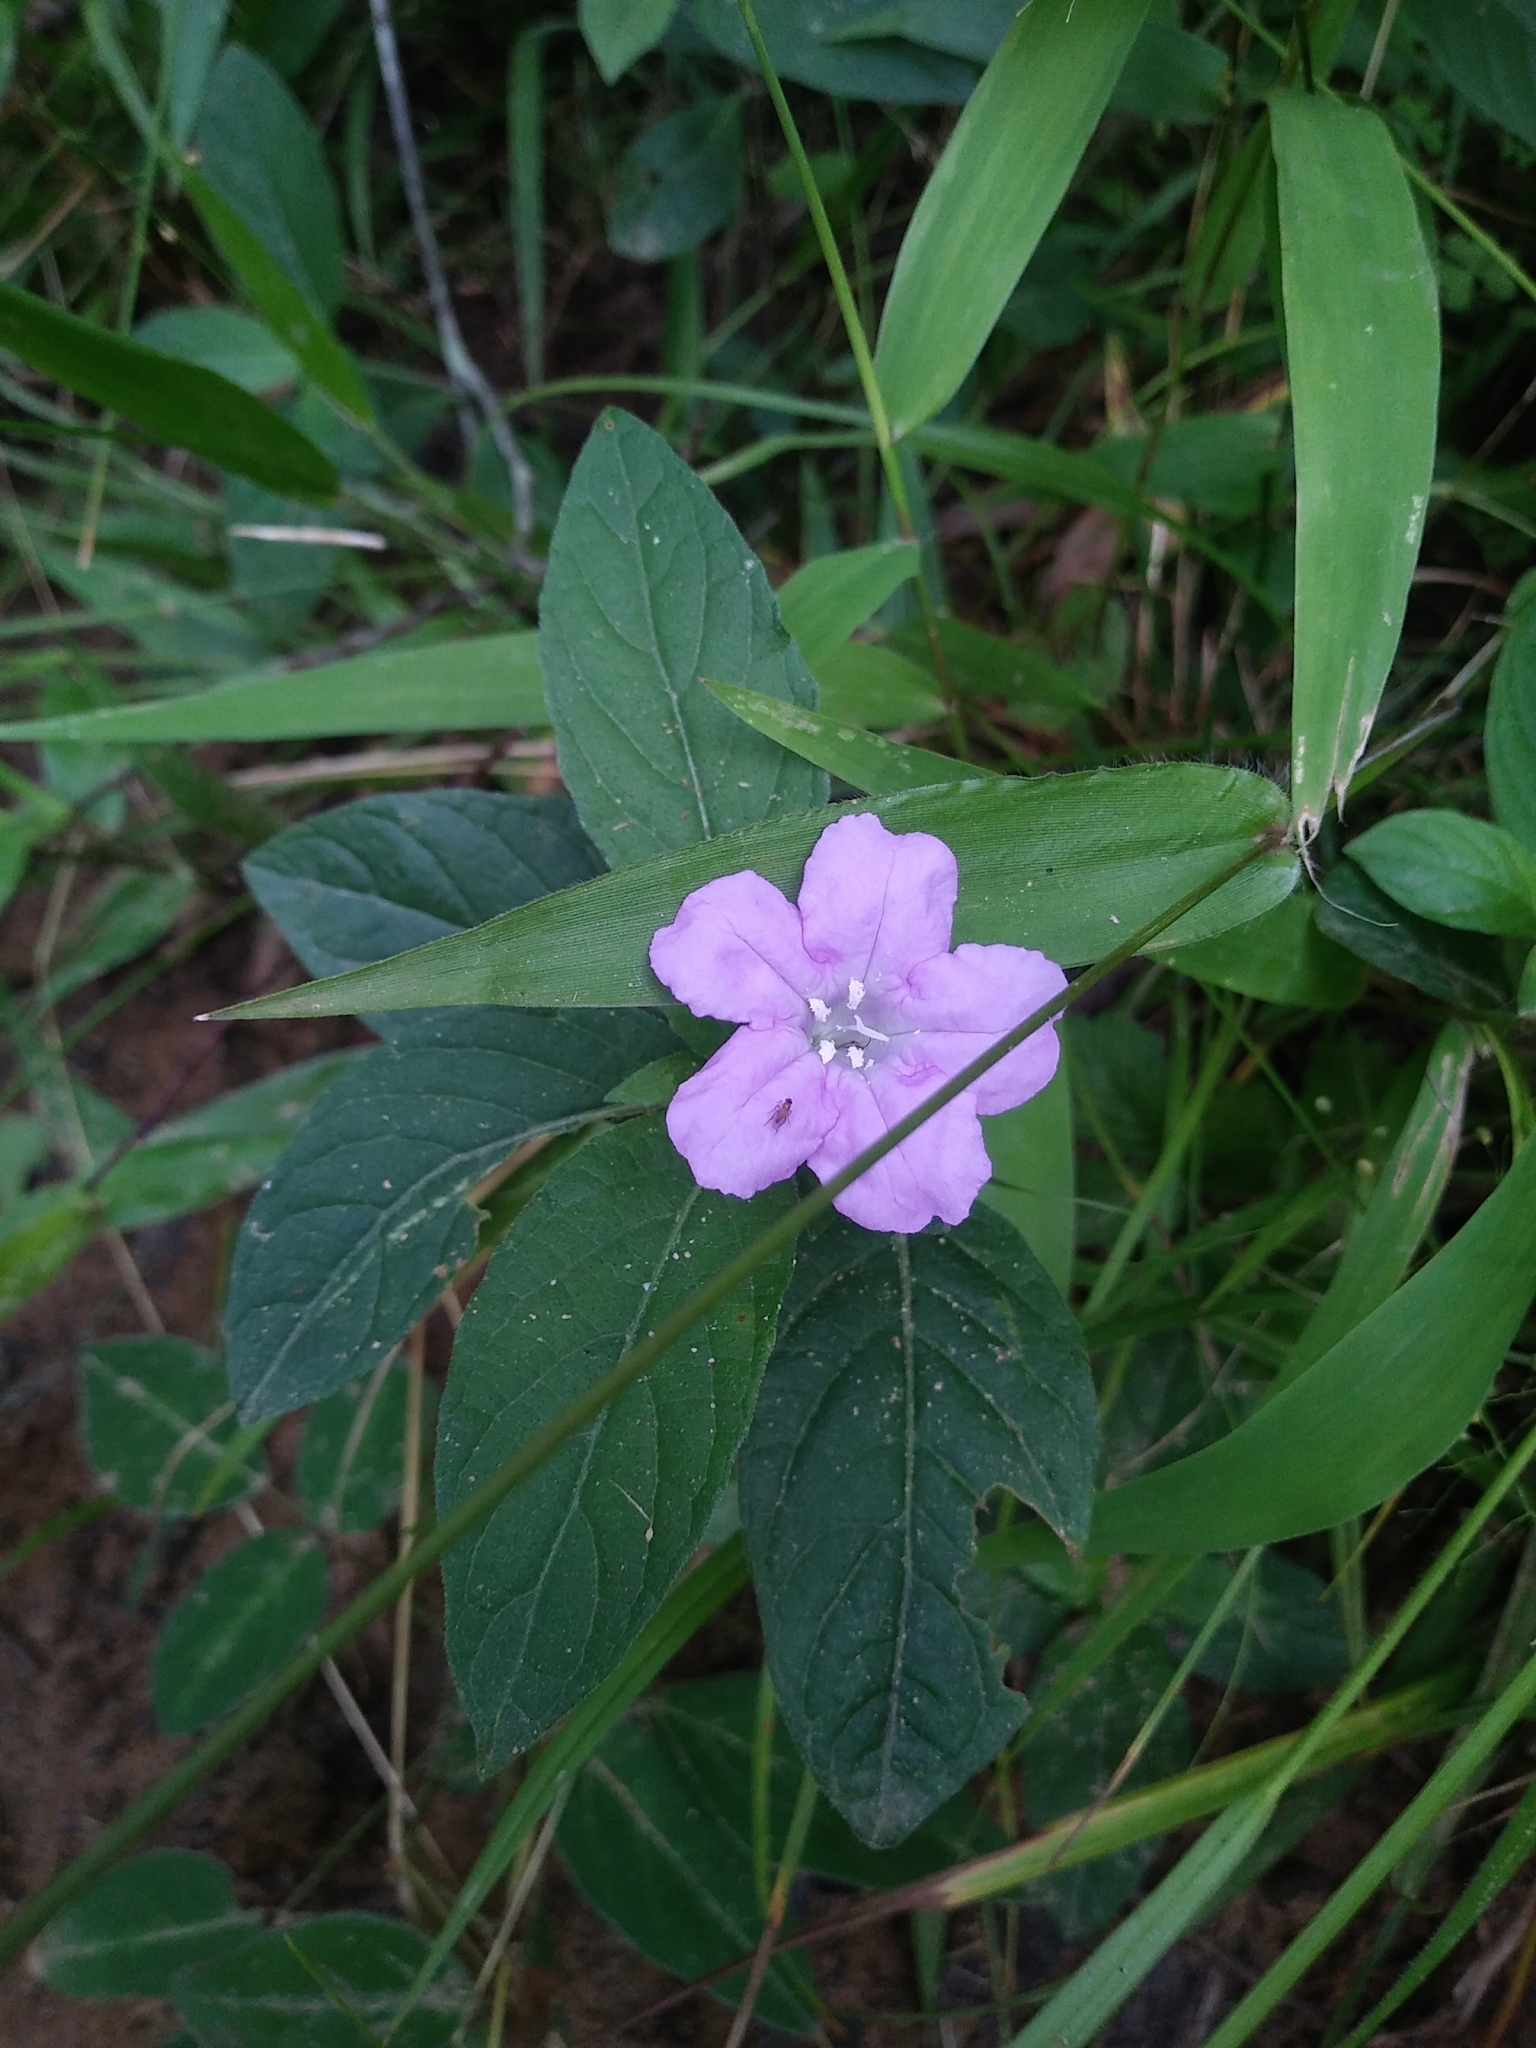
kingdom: Plantae
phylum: Tracheophyta
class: Magnoliopsida
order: Lamiales
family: Acanthaceae
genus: Ruellia
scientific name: Ruellia caroliniensis
